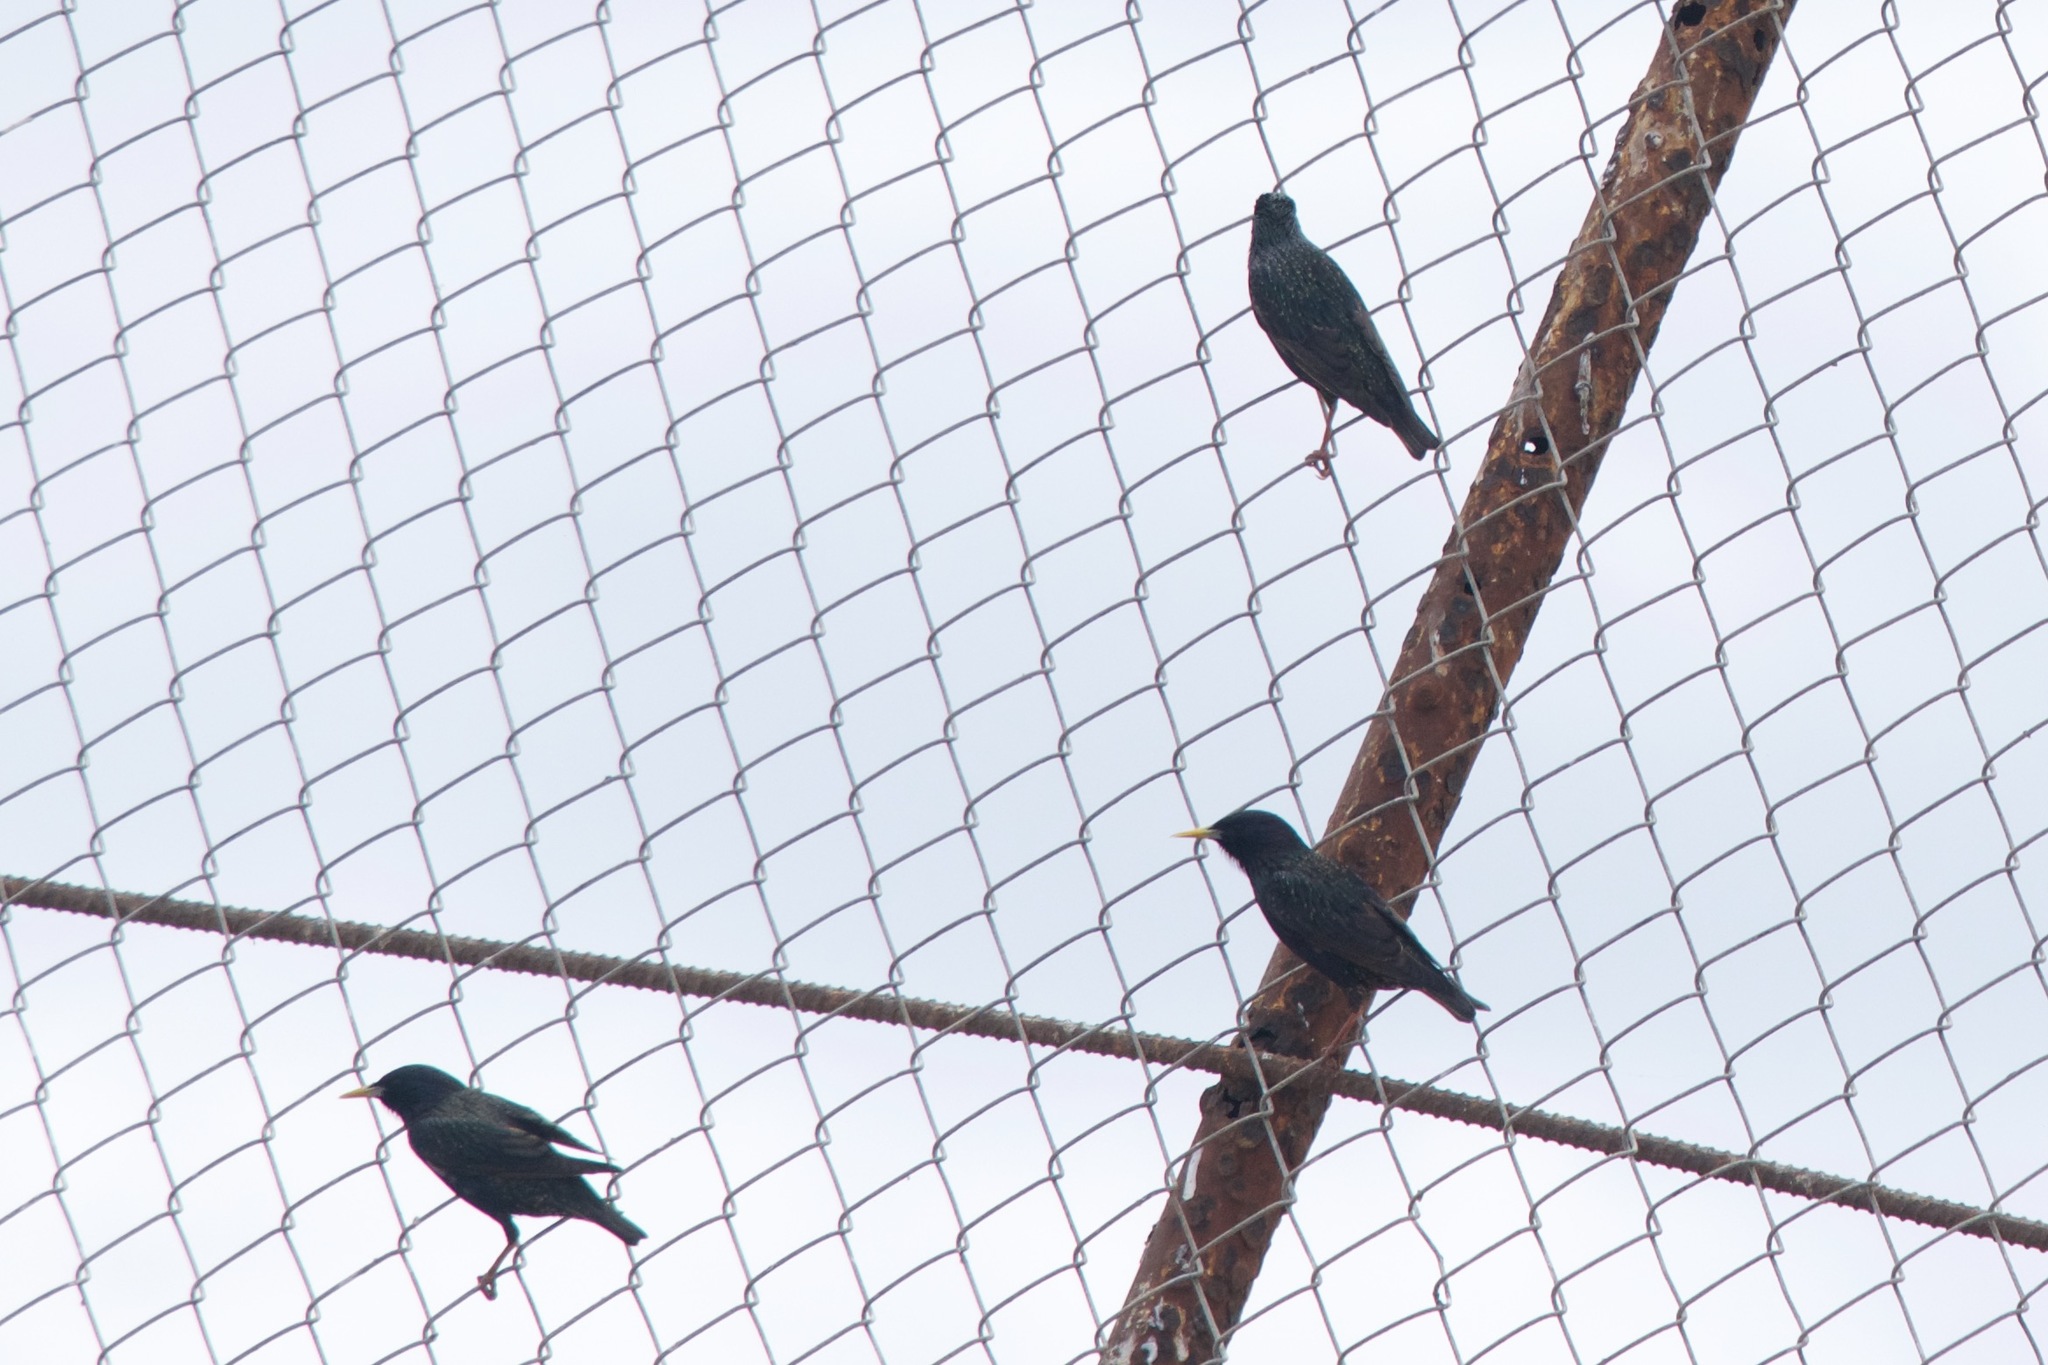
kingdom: Animalia
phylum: Chordata
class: Aves
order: Passeriformes
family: Sturnidae
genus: Sturnus
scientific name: Sturnus vulgaris
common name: Common starling
